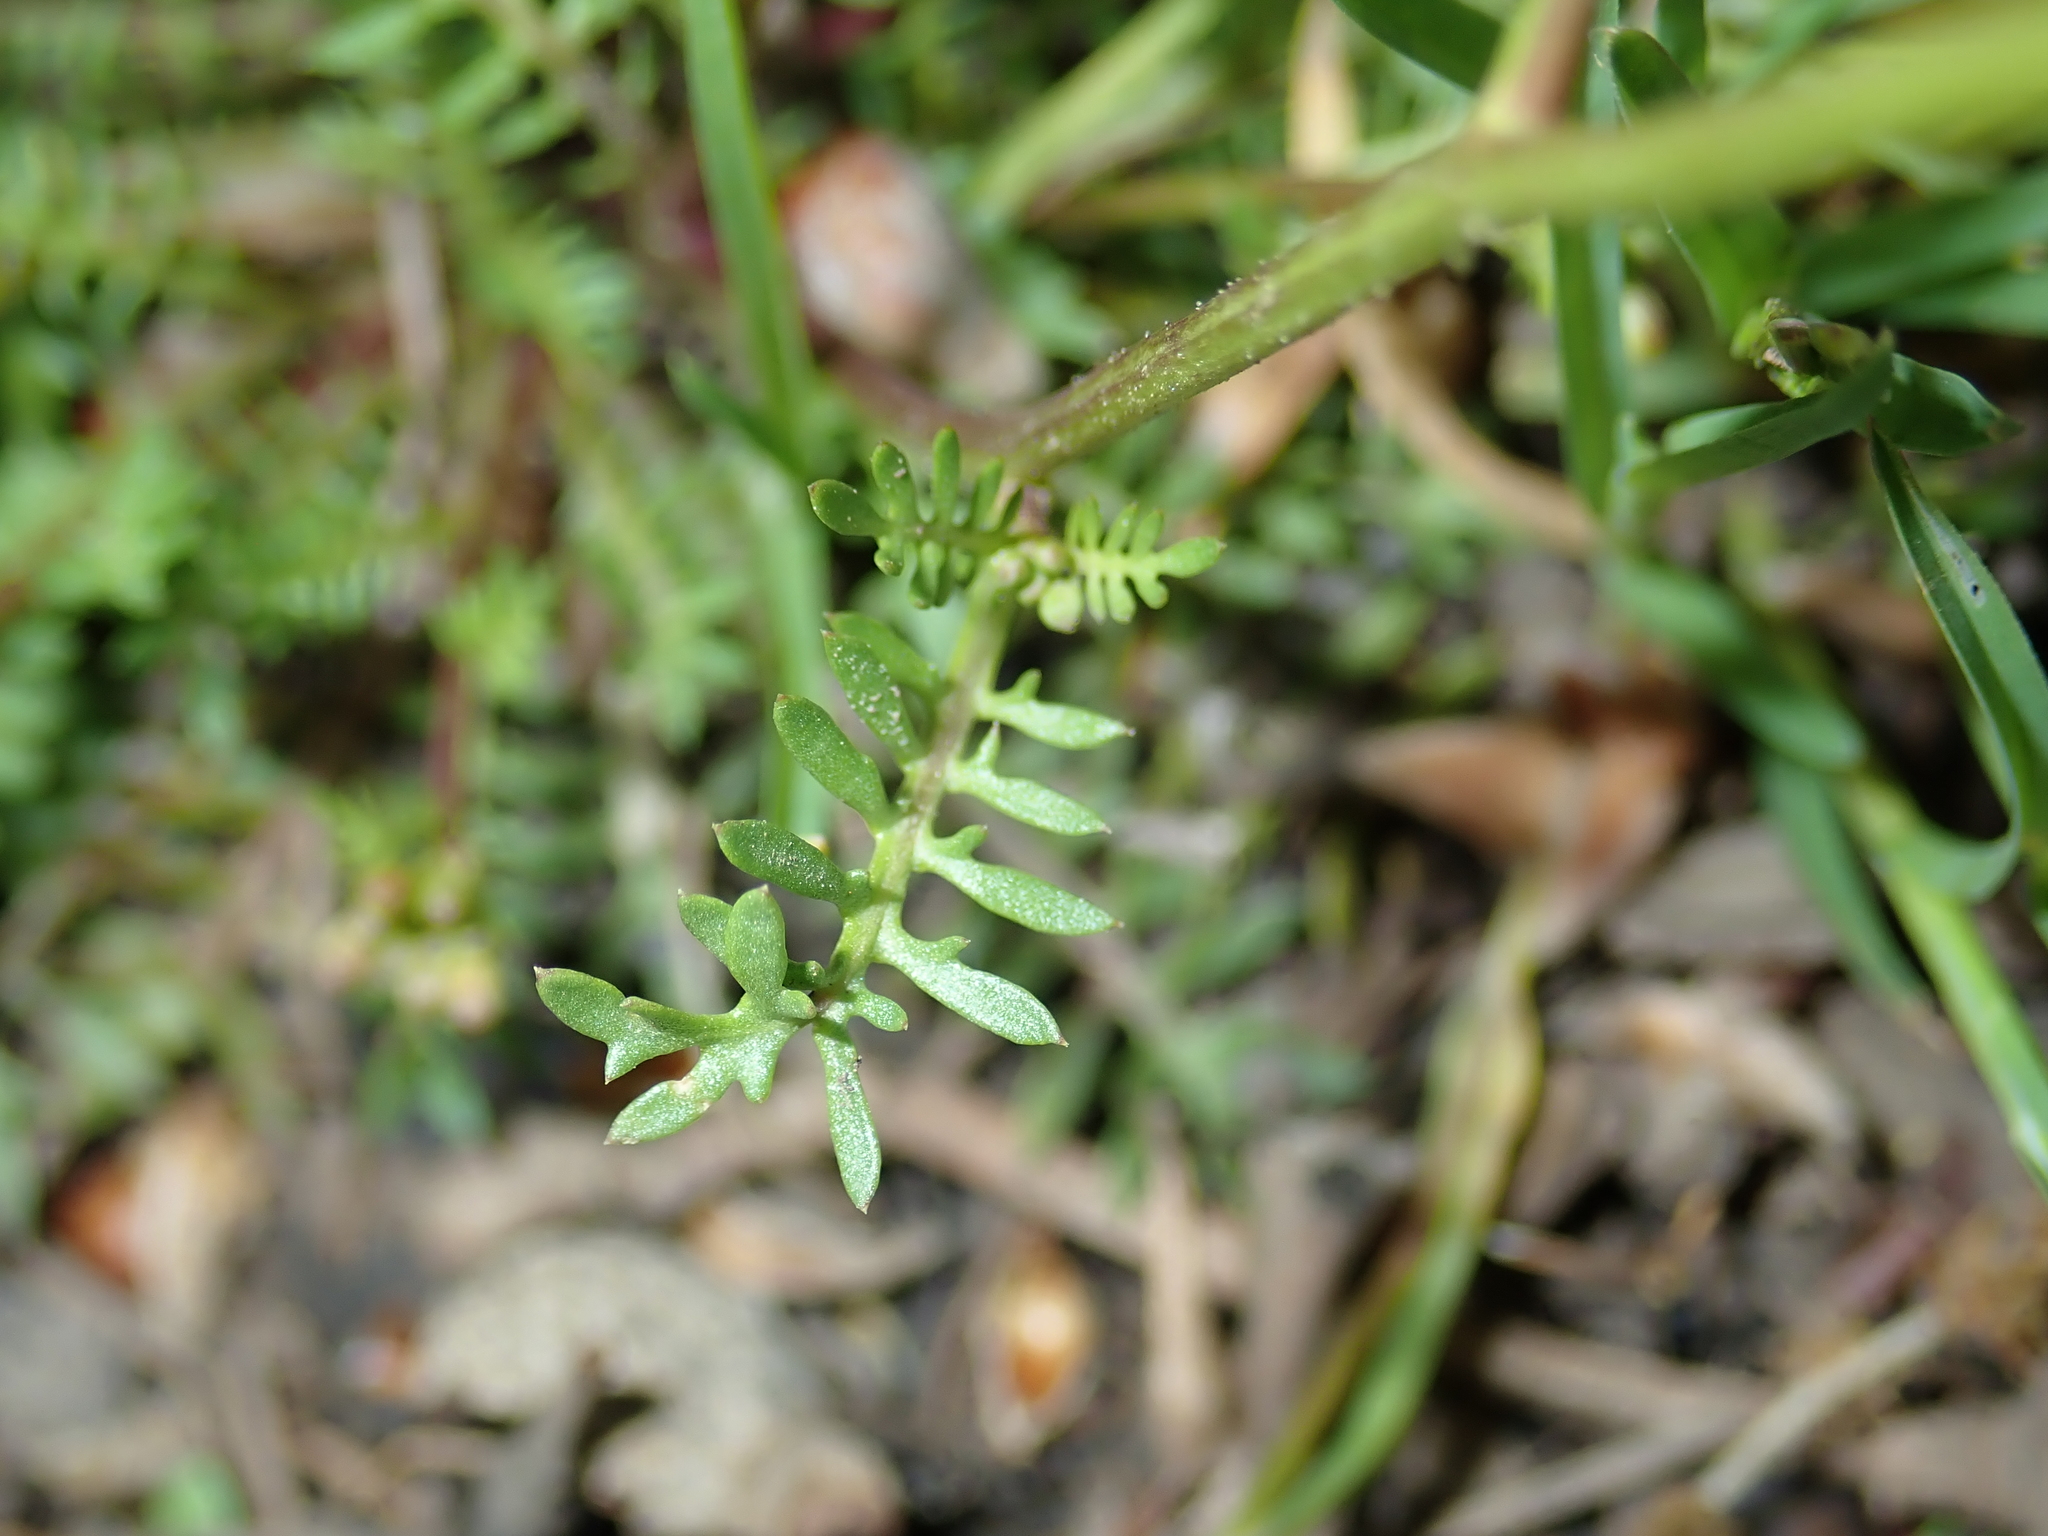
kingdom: Plantae
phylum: Tracheophyta
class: Magnoliopsida
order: Brassicales
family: Brassicaceae
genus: Sisymbrella
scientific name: Sisymbrella aspera
